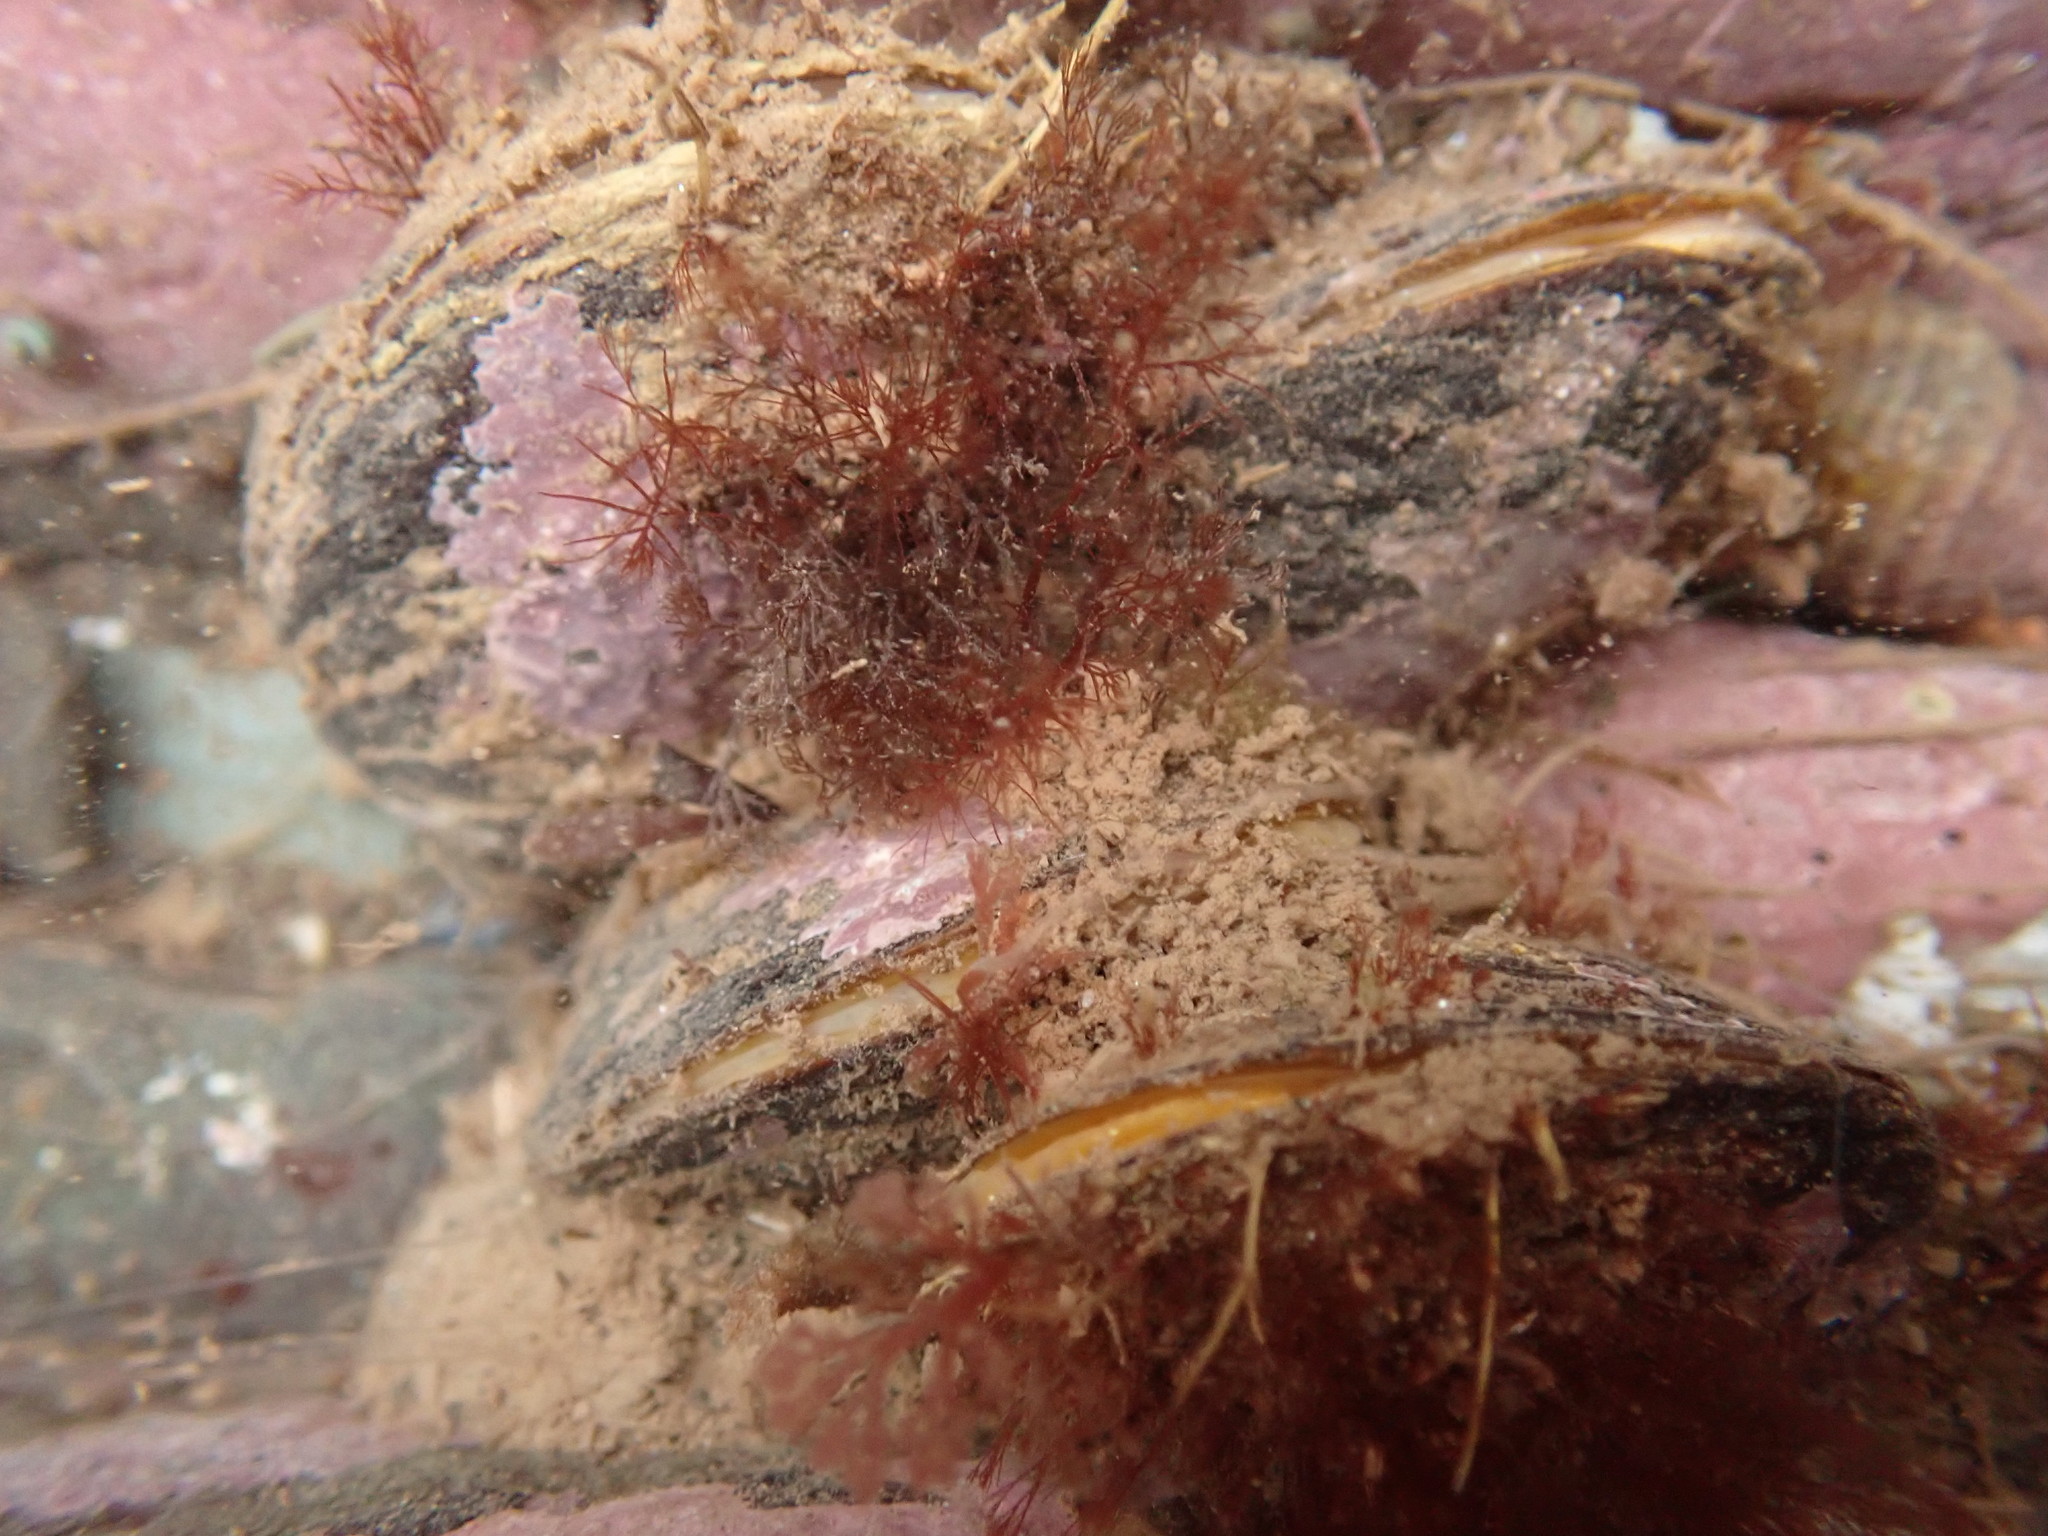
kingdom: Animalia
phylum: Mollusca
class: Bivalvia
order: Mytilida
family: Mytilidae
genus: Modiolus
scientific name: Modiolus modiolus
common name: Horse-mussel
